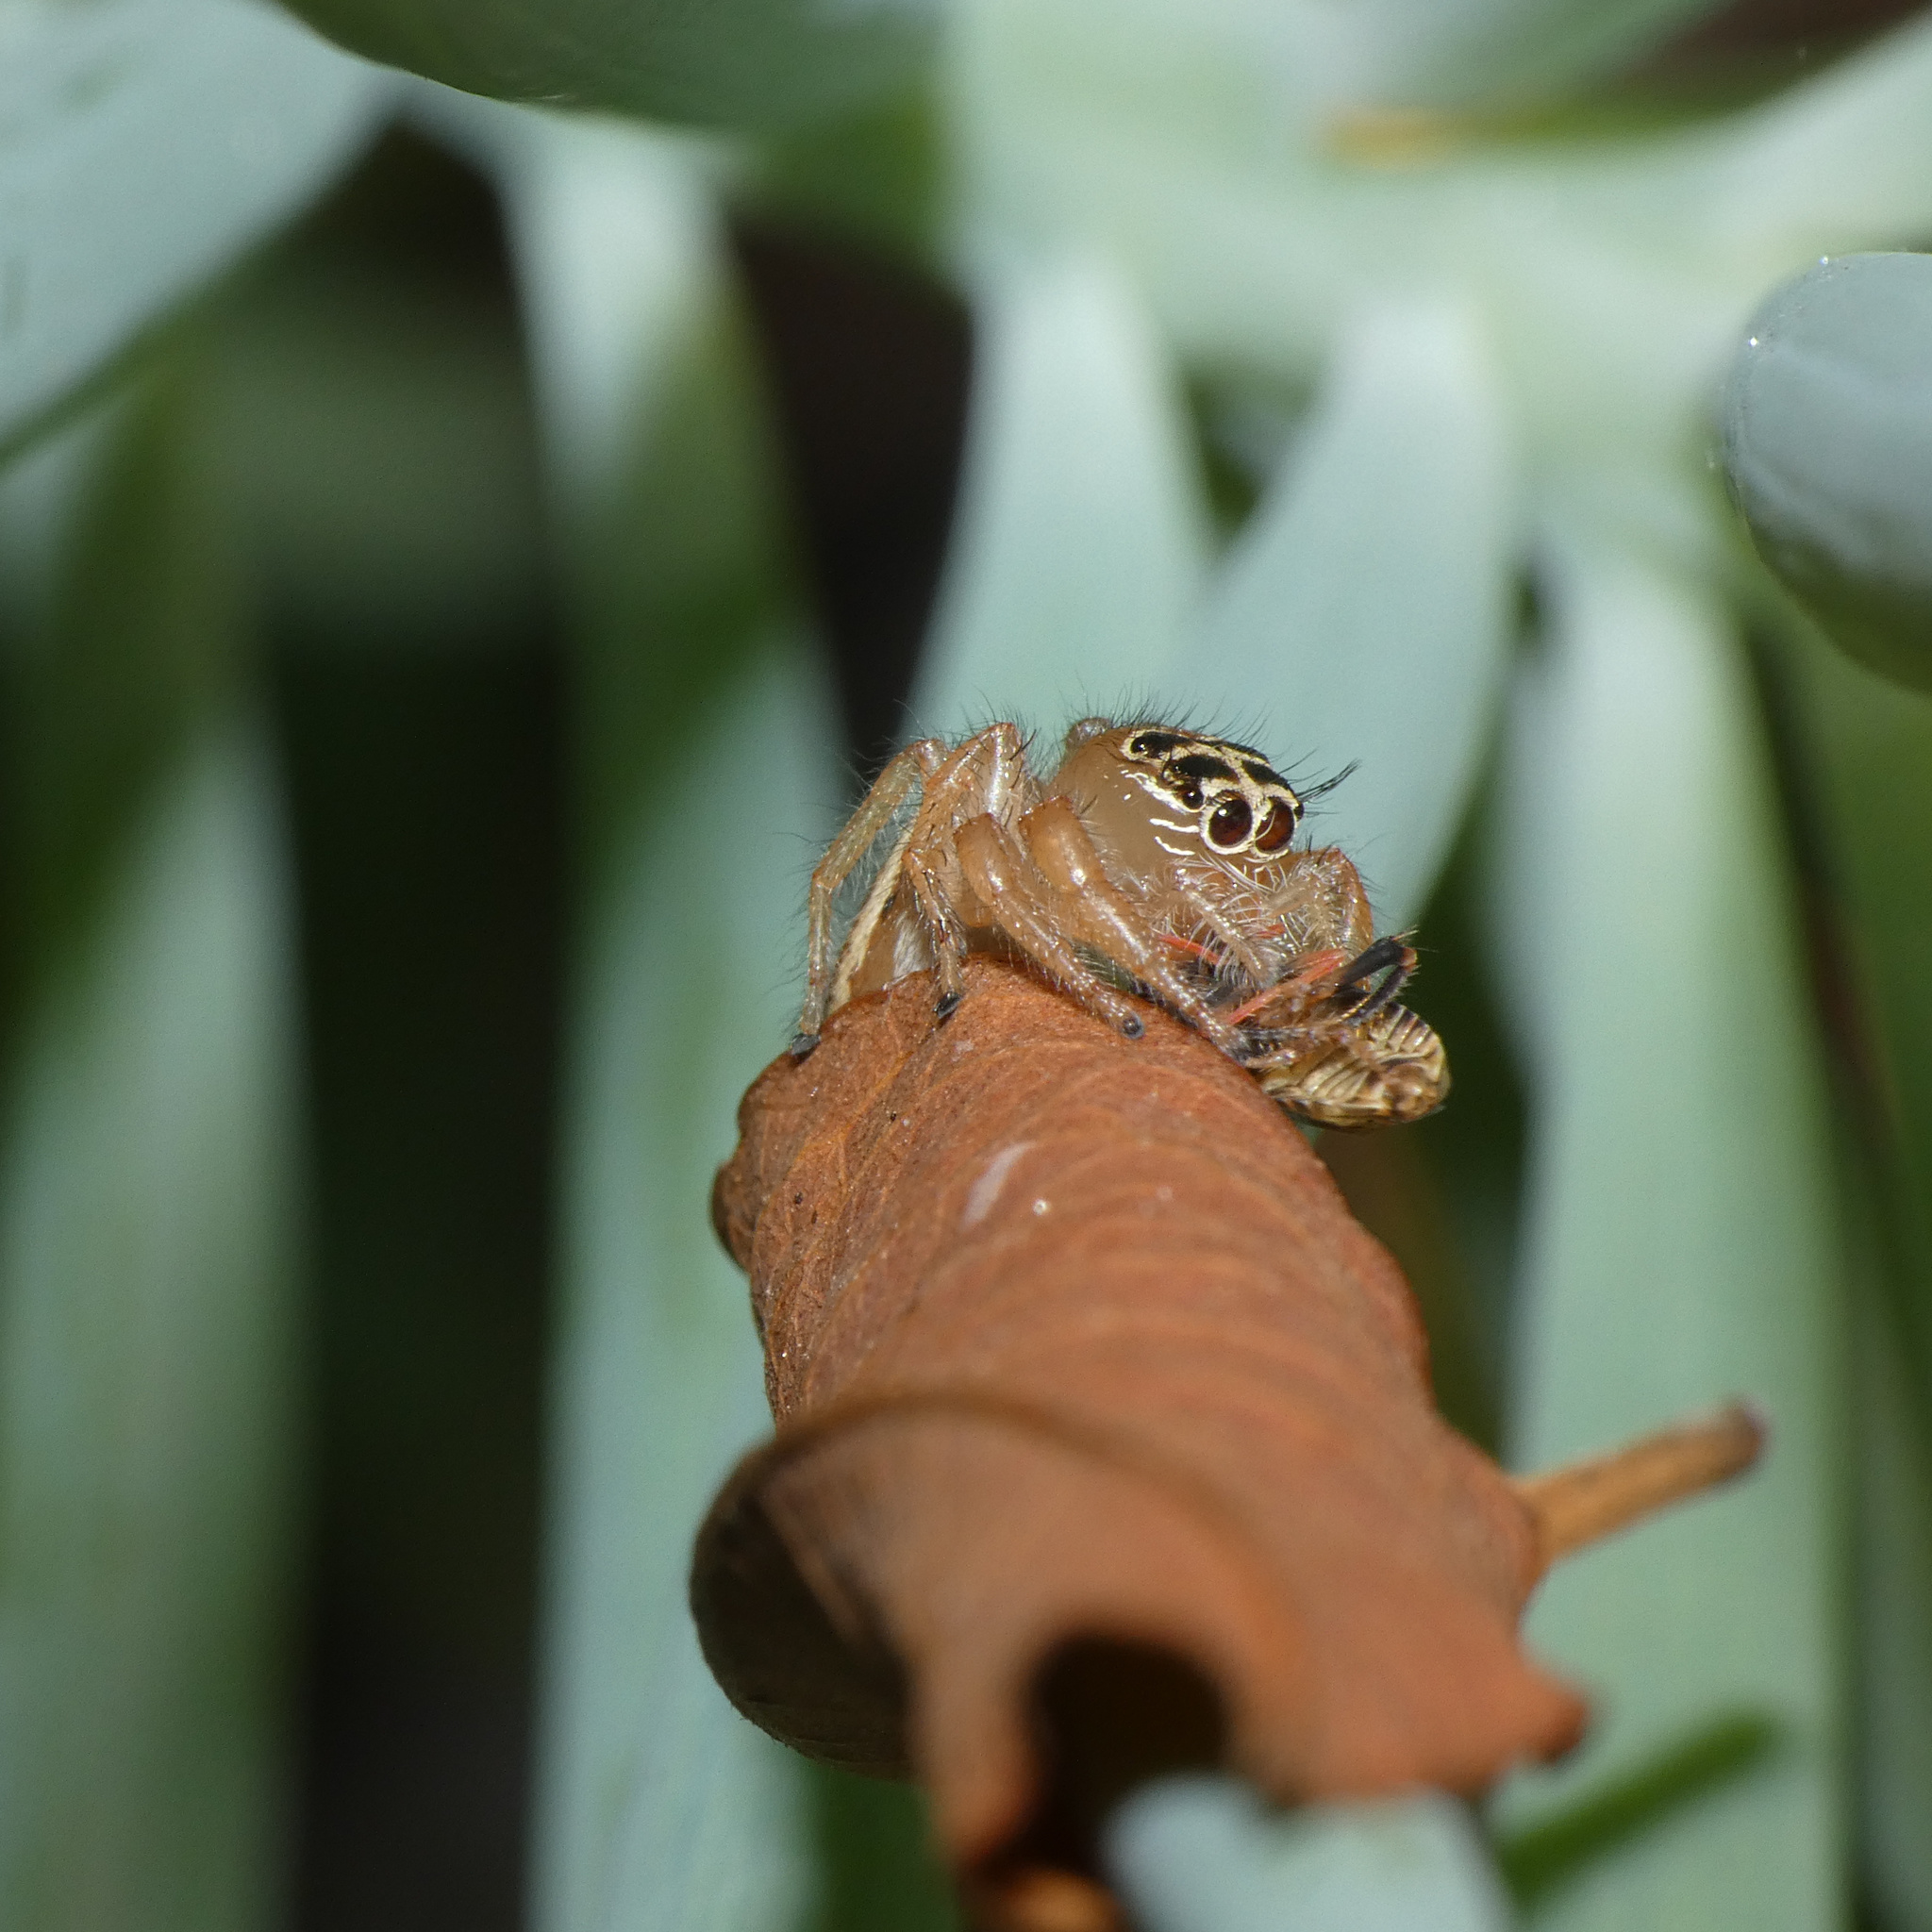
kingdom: Animalia
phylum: Arthropoda
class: Arachnida
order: Araneae
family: Salticidae
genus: Thyene
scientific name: Thyene inflata
